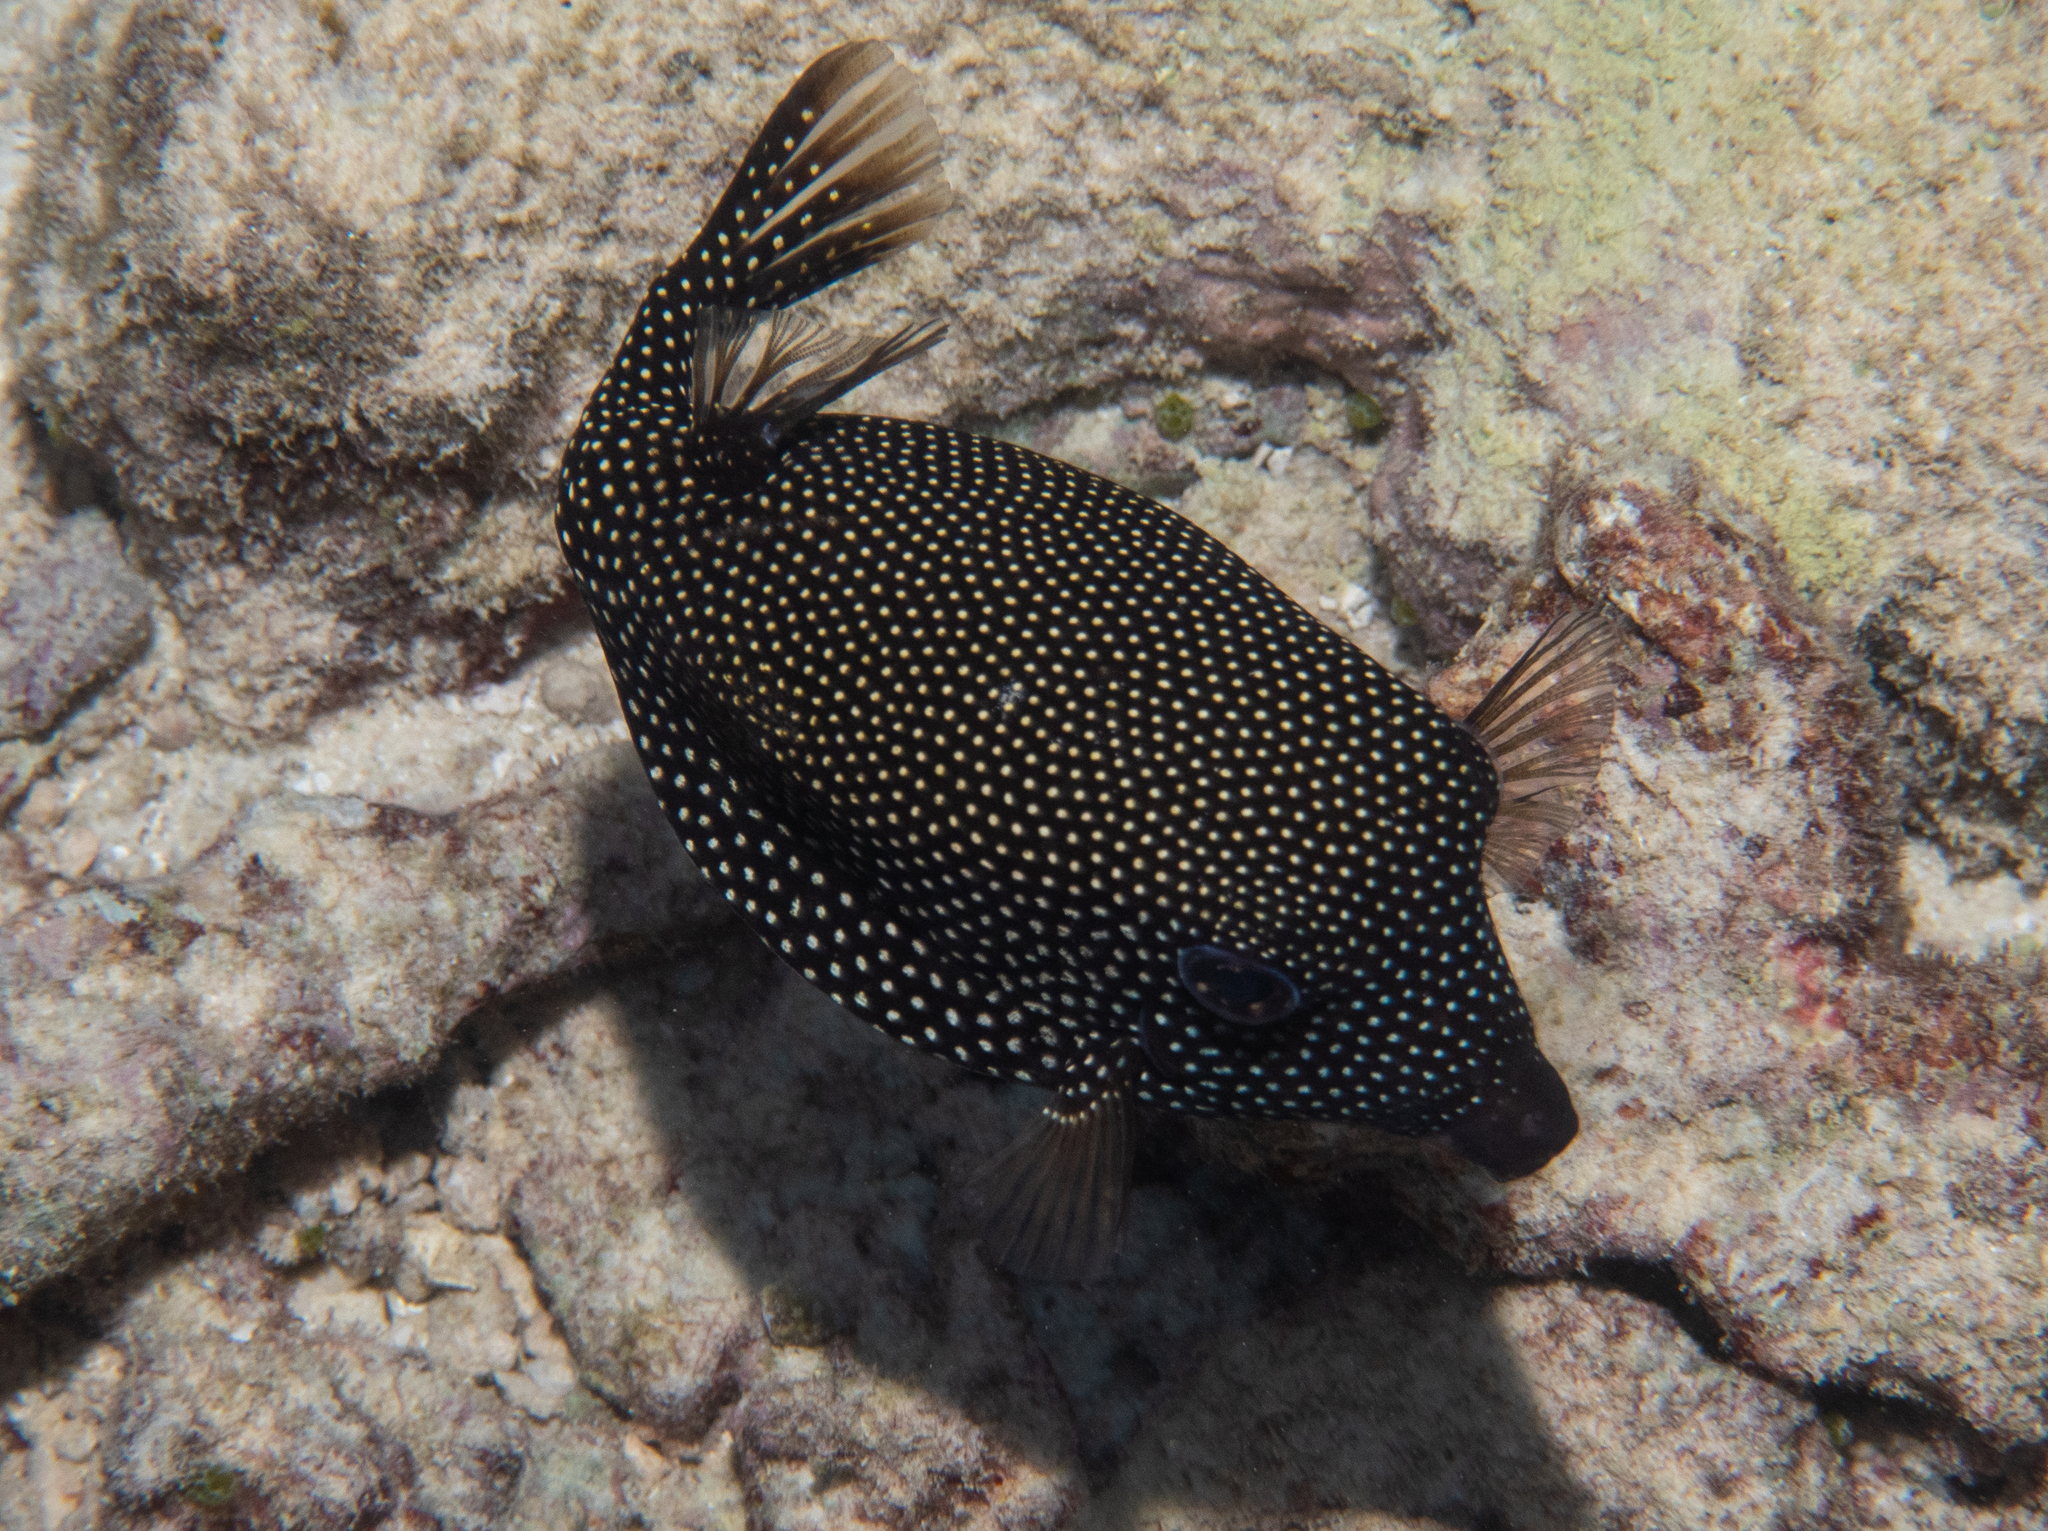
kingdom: Animalia
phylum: Chordata
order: Tetraodontiformes
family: Ostraciidae
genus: Ostracion
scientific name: Ostracion meleagris
